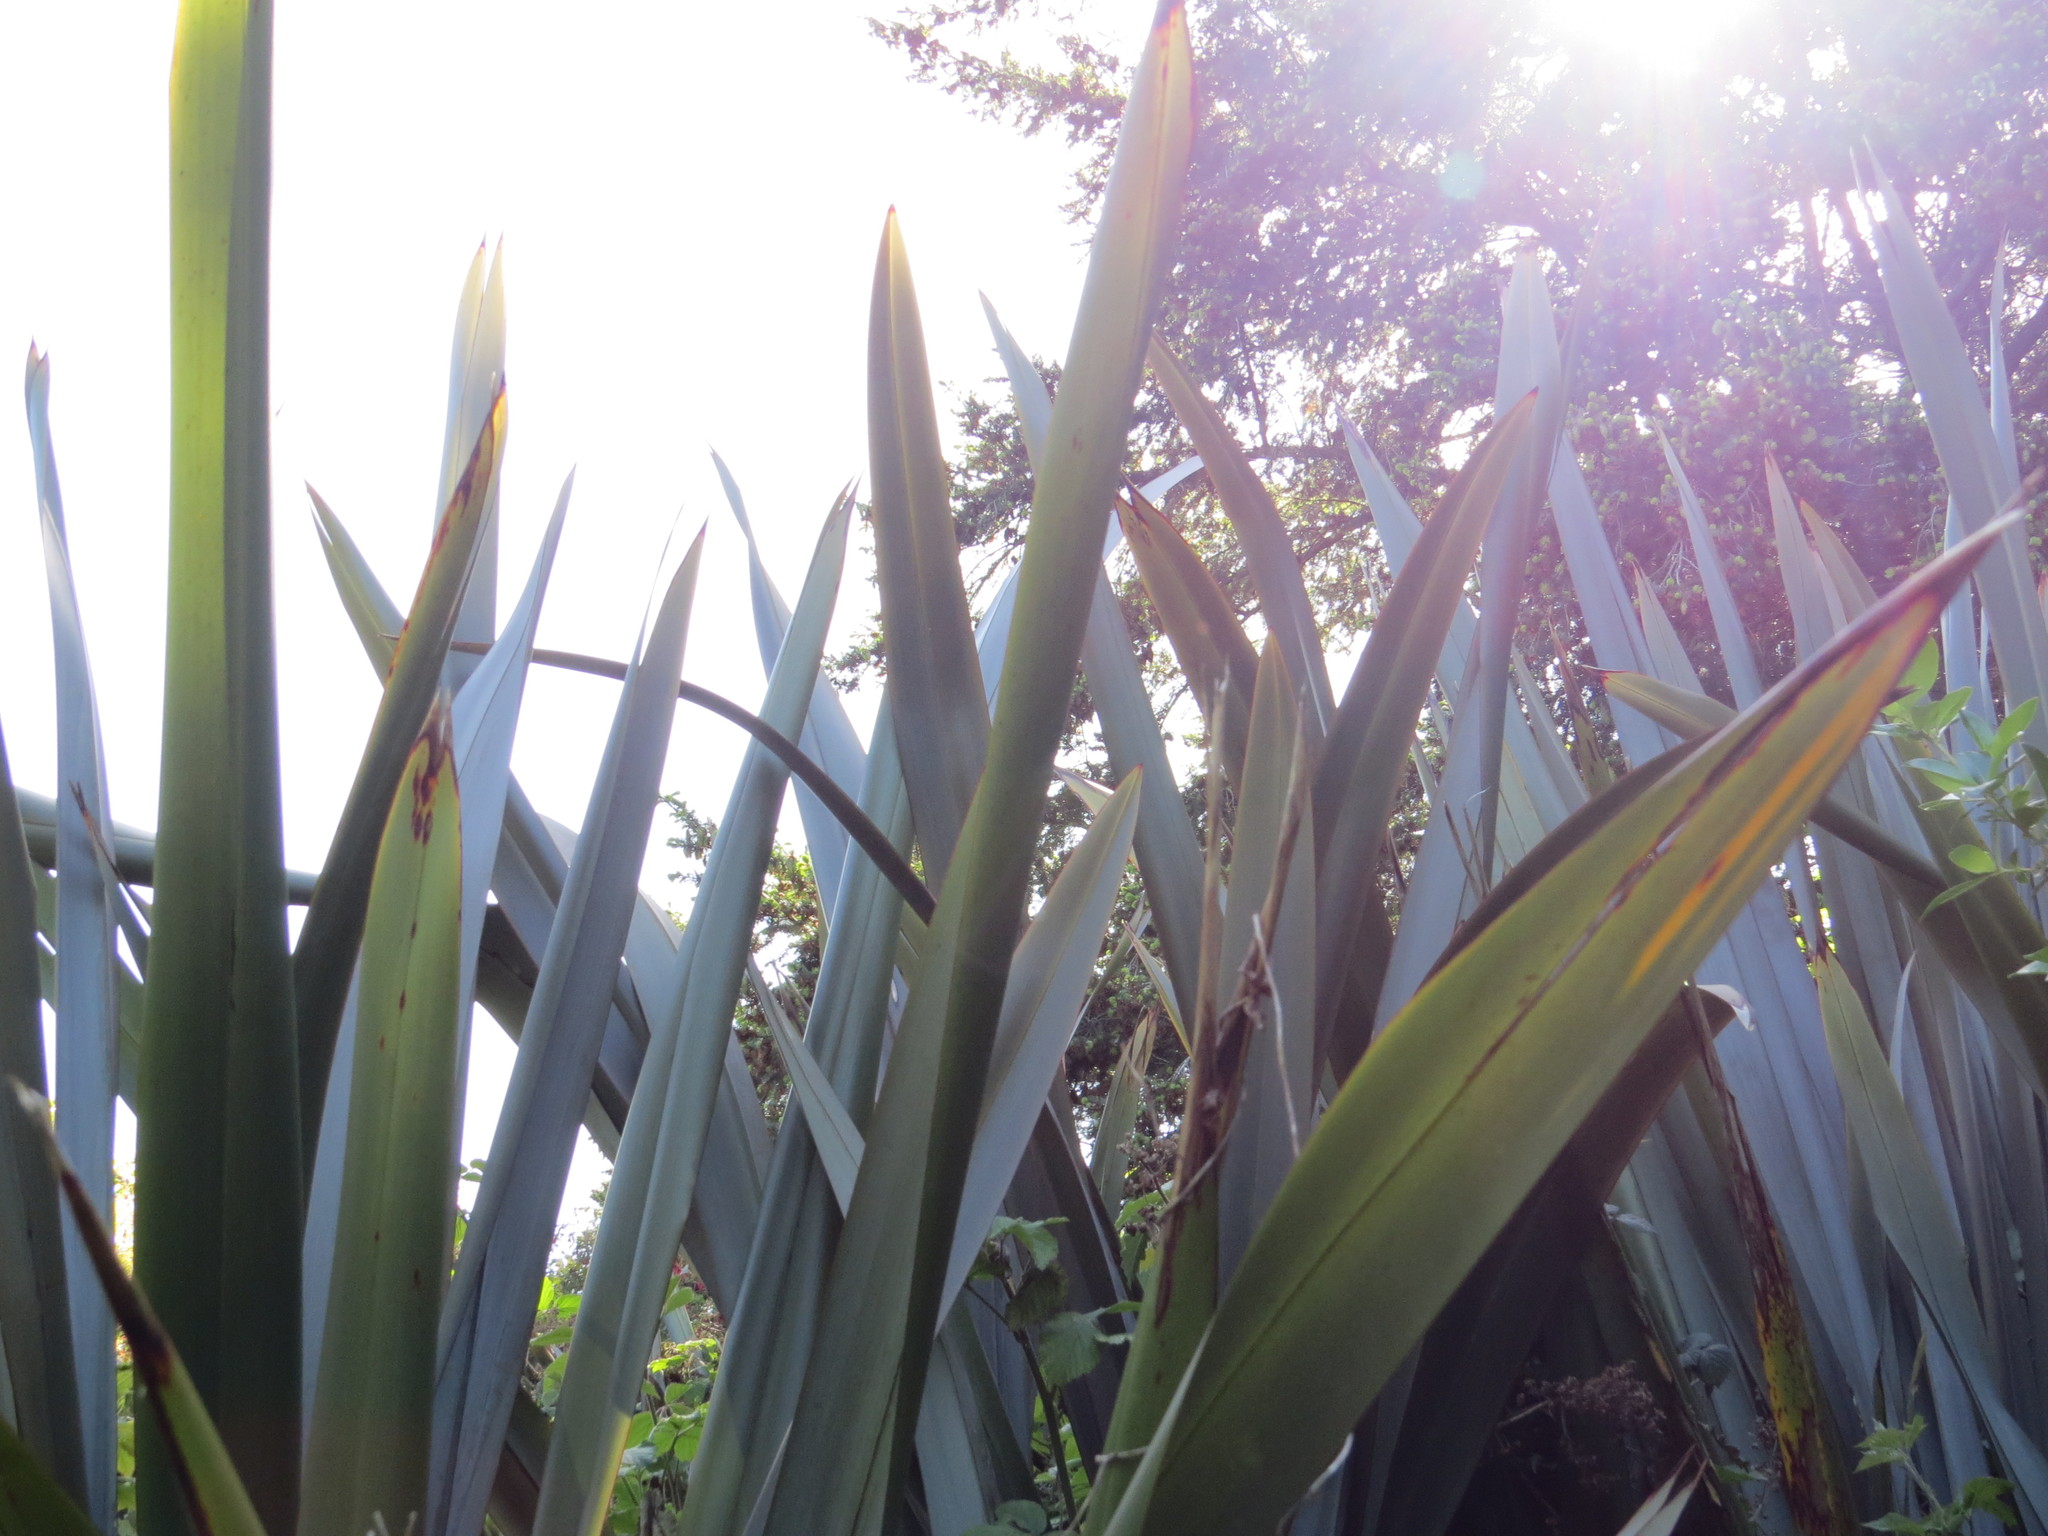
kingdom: Plantae
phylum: Tracheophyta
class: Liliopsida
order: Asparagales
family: Asphodelaceae
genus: Phormium
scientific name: Phormium tenax
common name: New zealand flax
